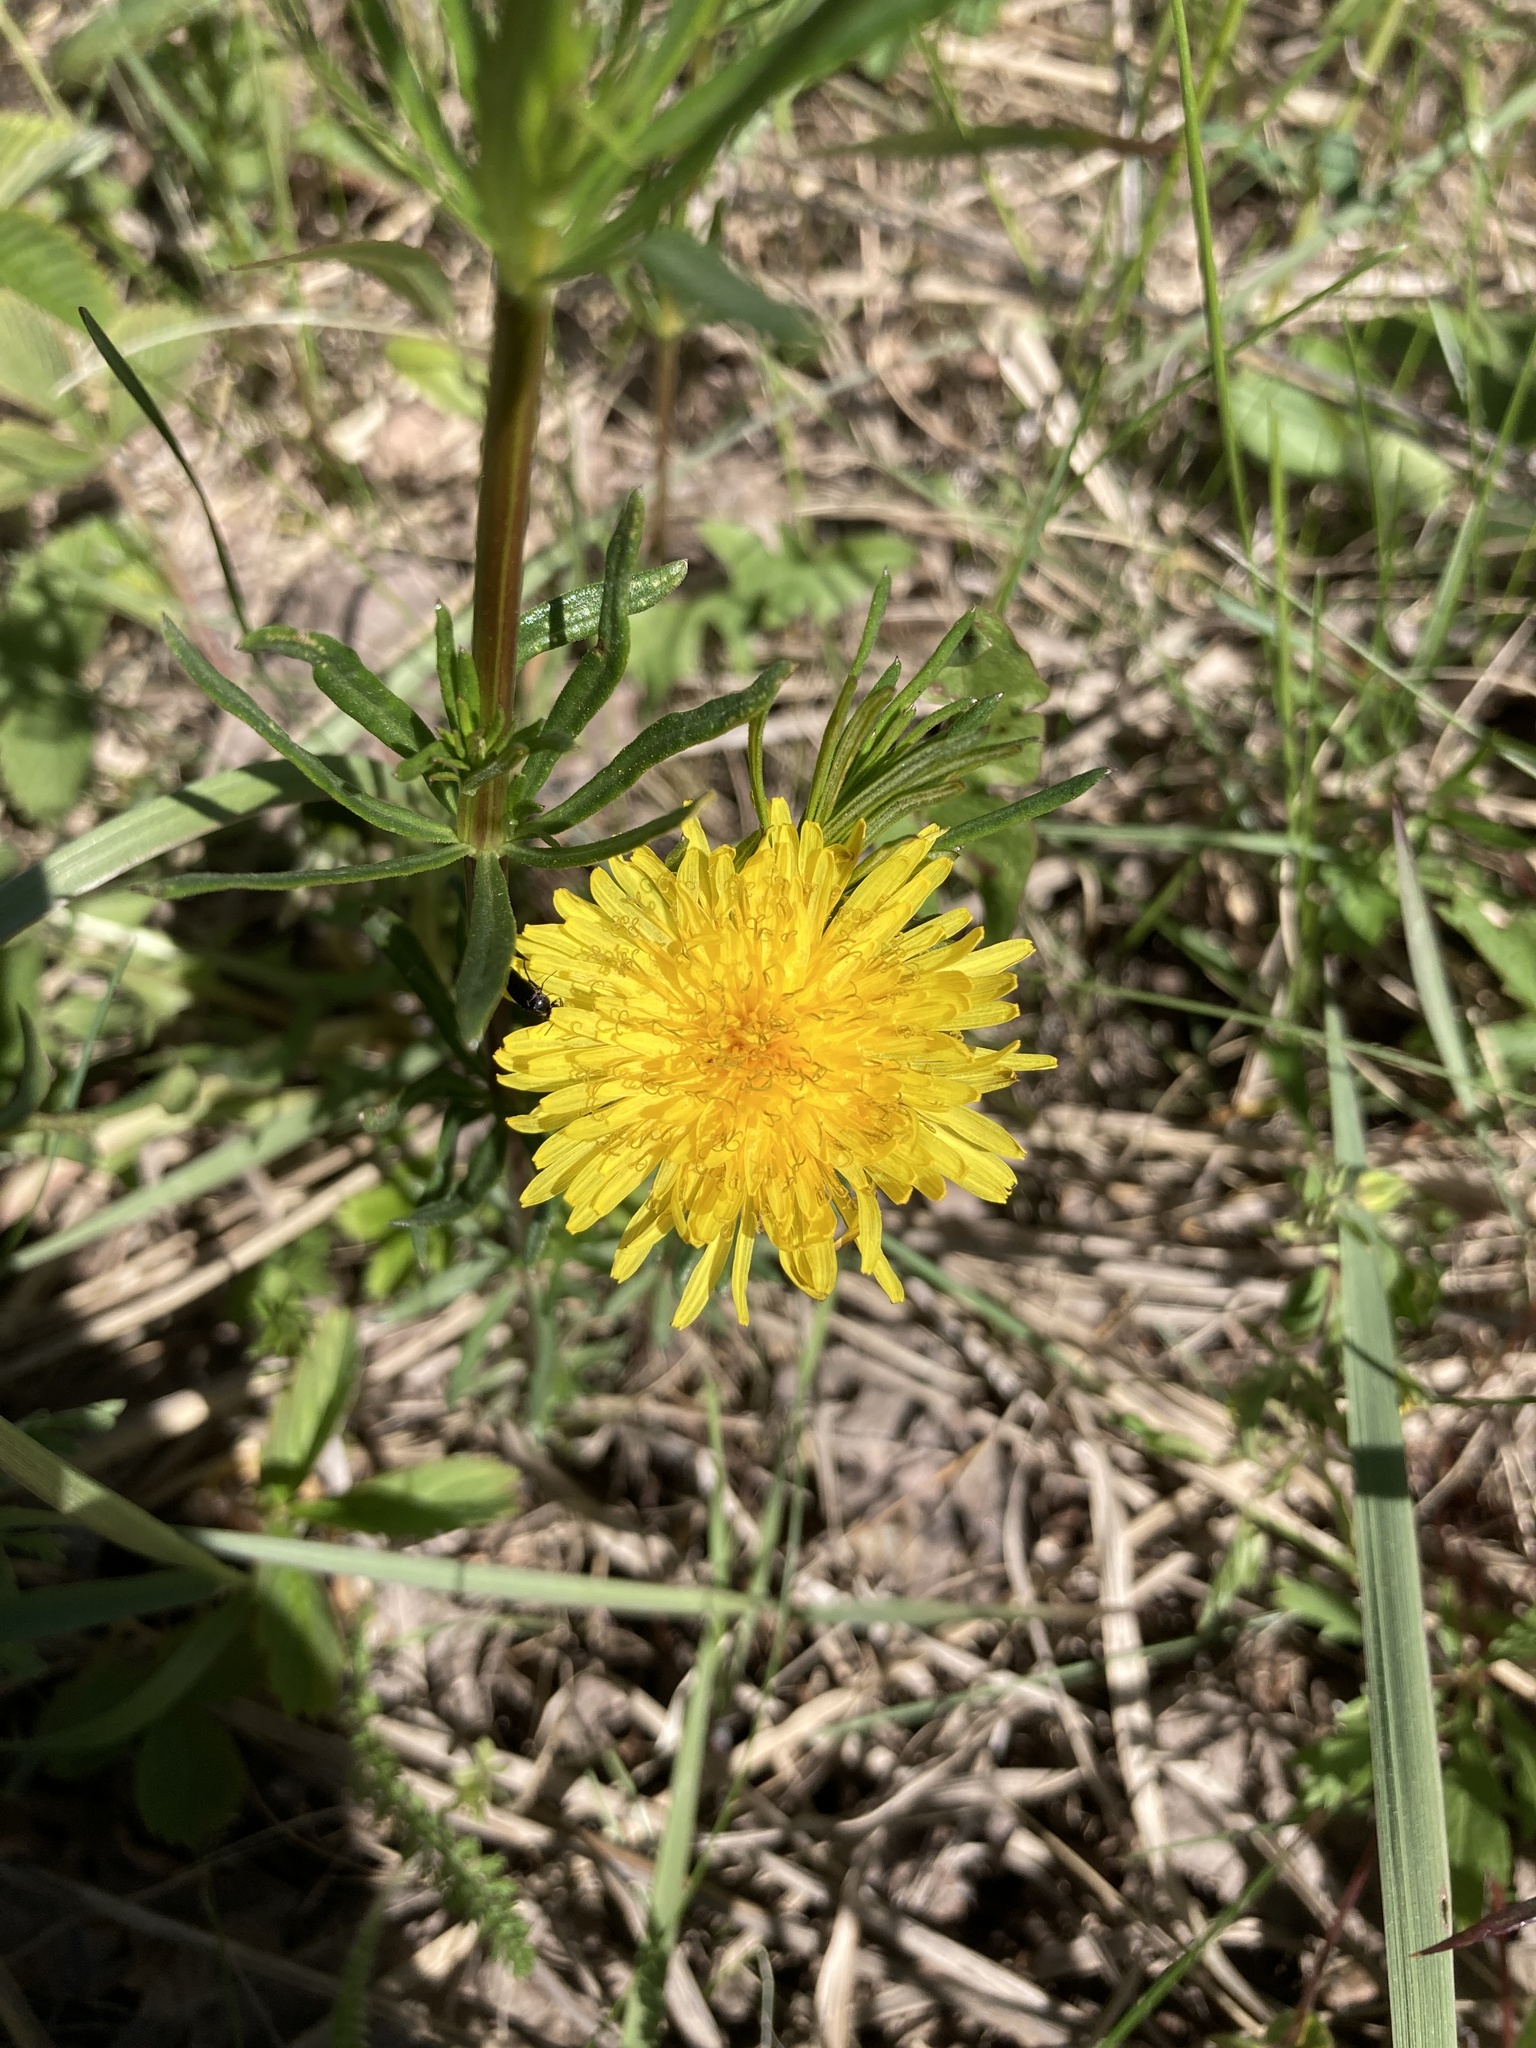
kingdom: Plantae
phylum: Tracheophyta
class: Magnoliopsida
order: Asterales
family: Asteraceae
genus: Taraxacum
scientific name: Taraxacum officinale
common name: Common dandelion
